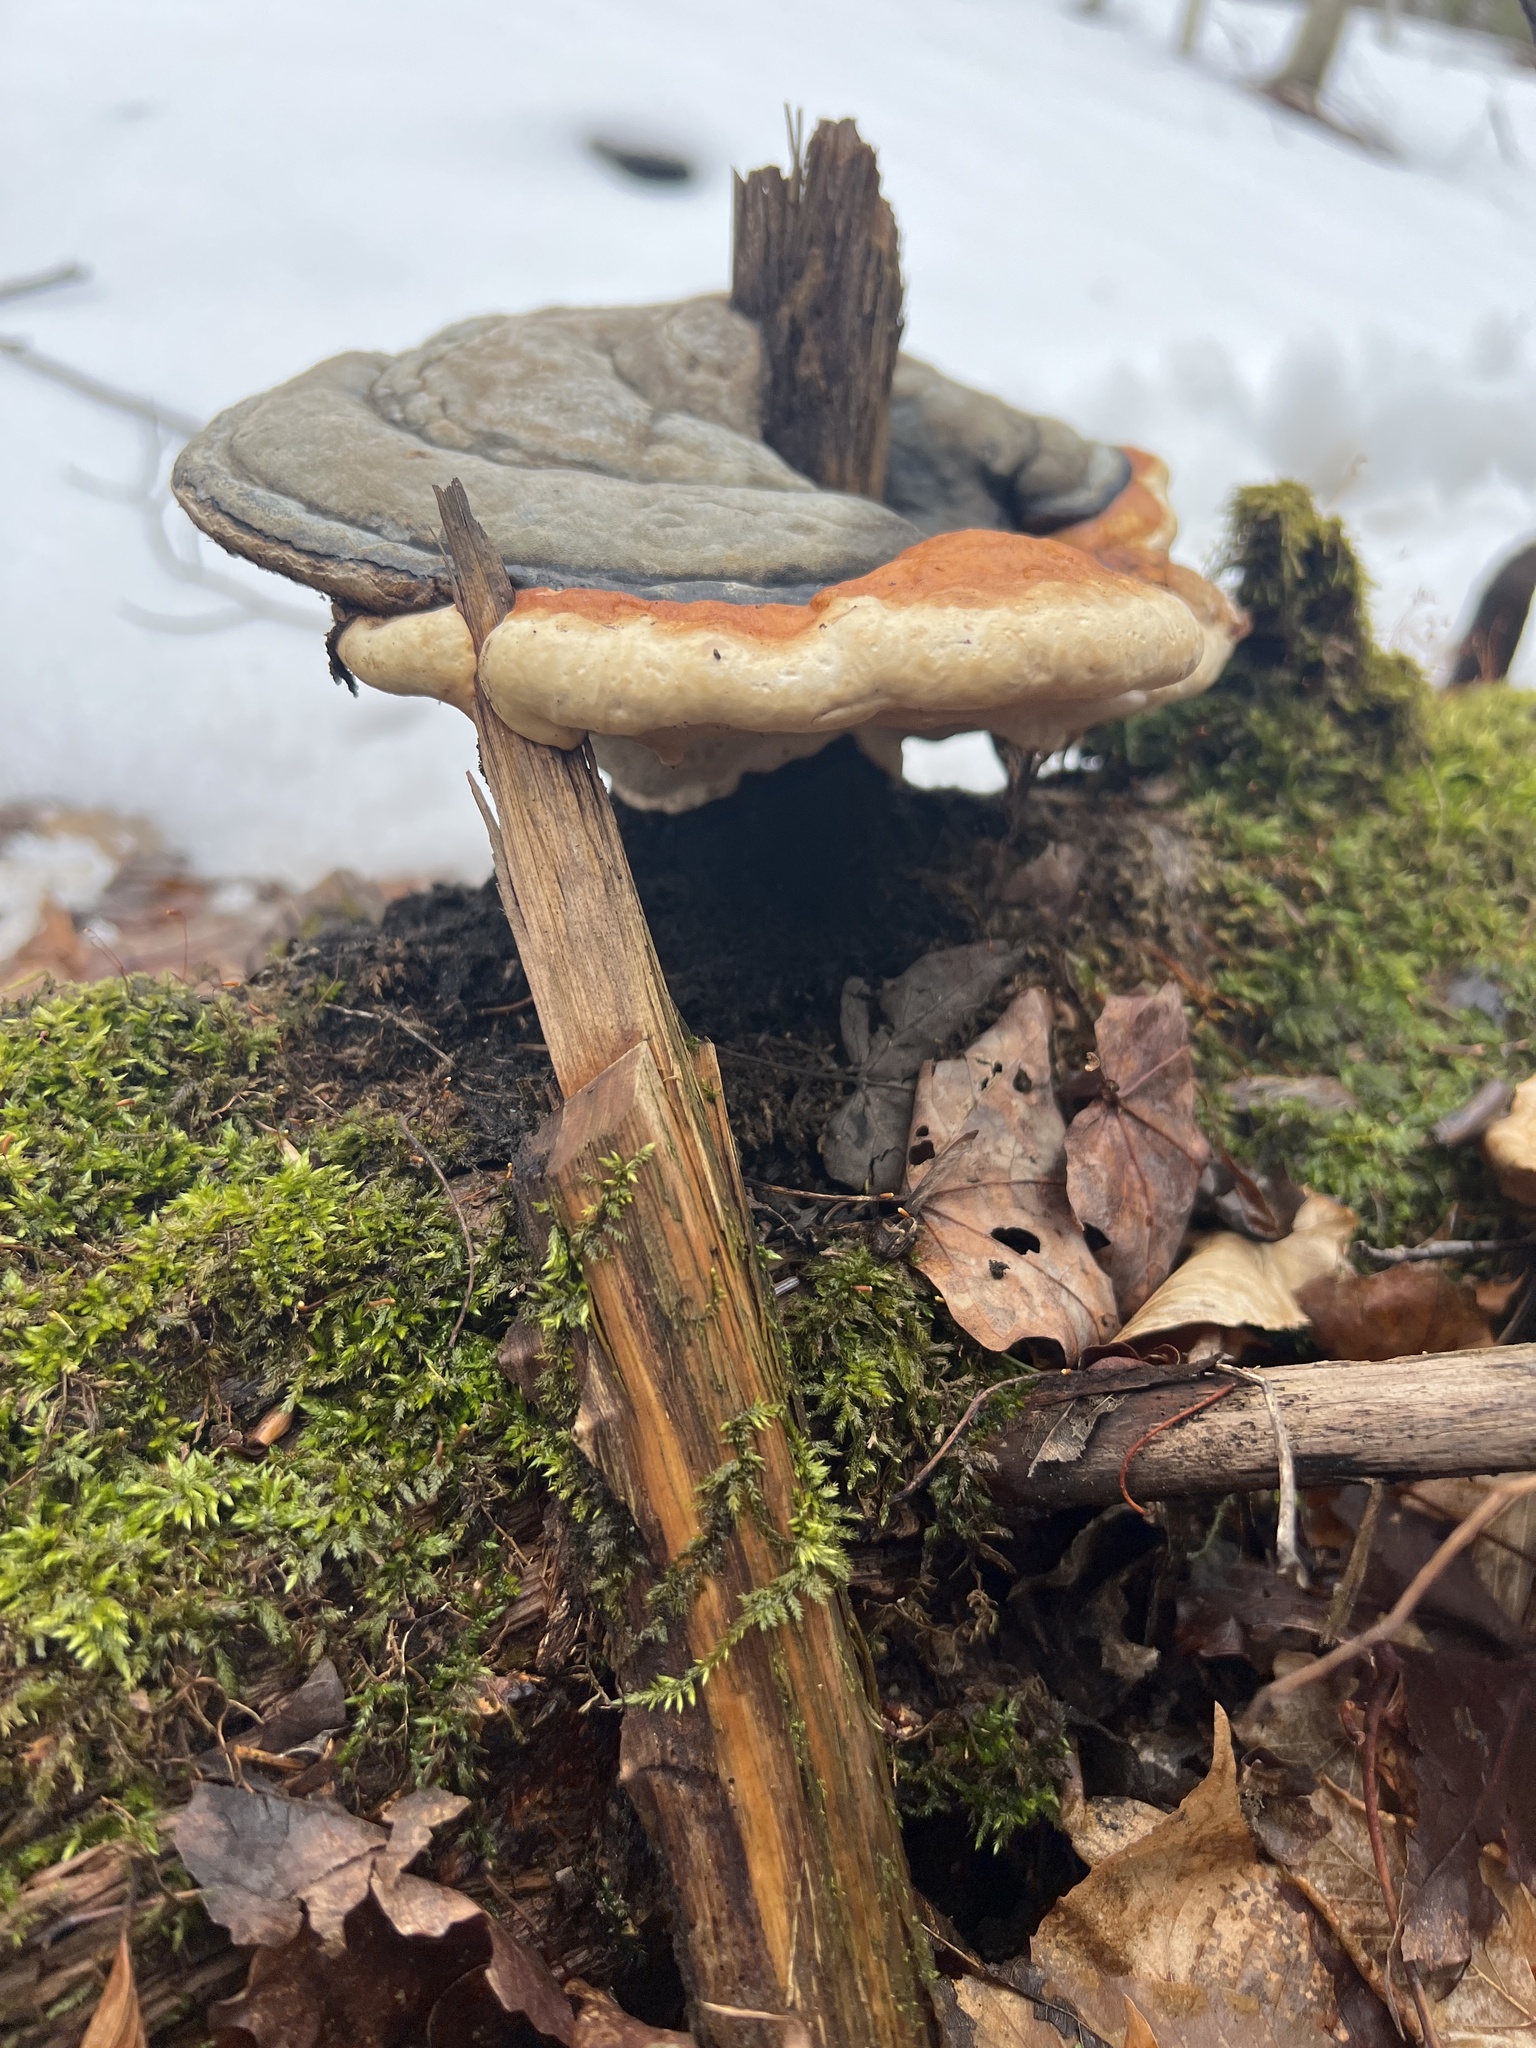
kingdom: Fungi
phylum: Basidiomycota
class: Agaricomycetes
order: Polyporales
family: Fomitopsidaceae
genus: Fomitopsis
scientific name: Fomitopsis mounceae
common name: Northern red belt
